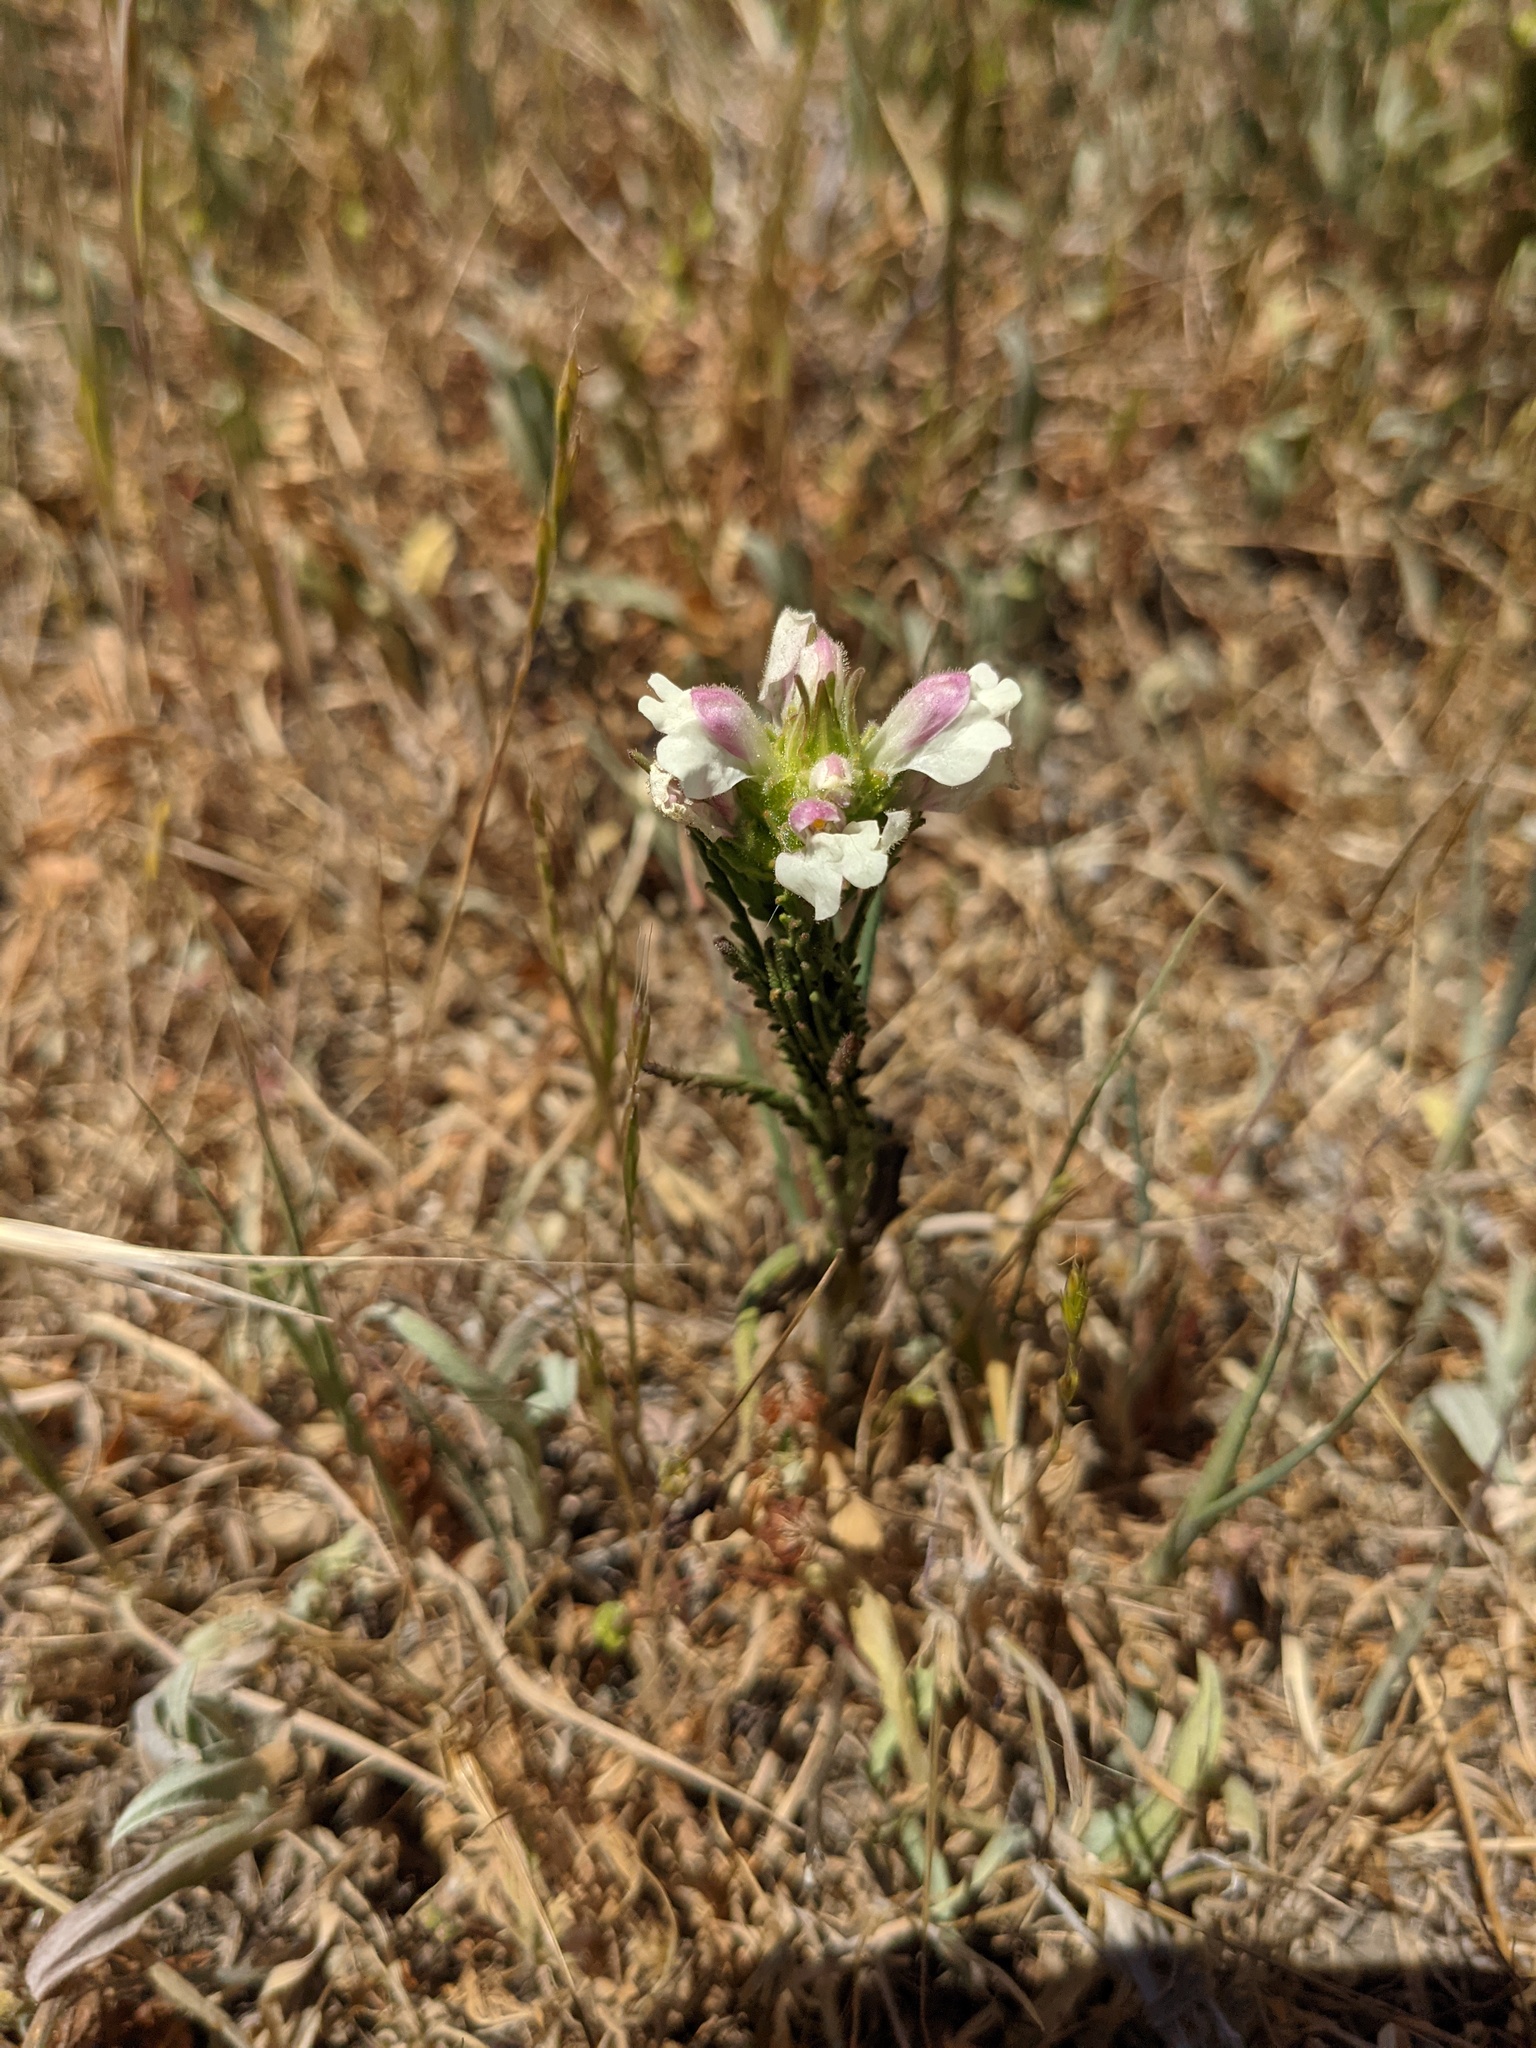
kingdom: Plantae
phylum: Tracheophyta
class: Magnoliopsida
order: Lamiales
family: Orobanchaceae
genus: Bellardia
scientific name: Bellardia trixago
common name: Mediterranean lineseed
